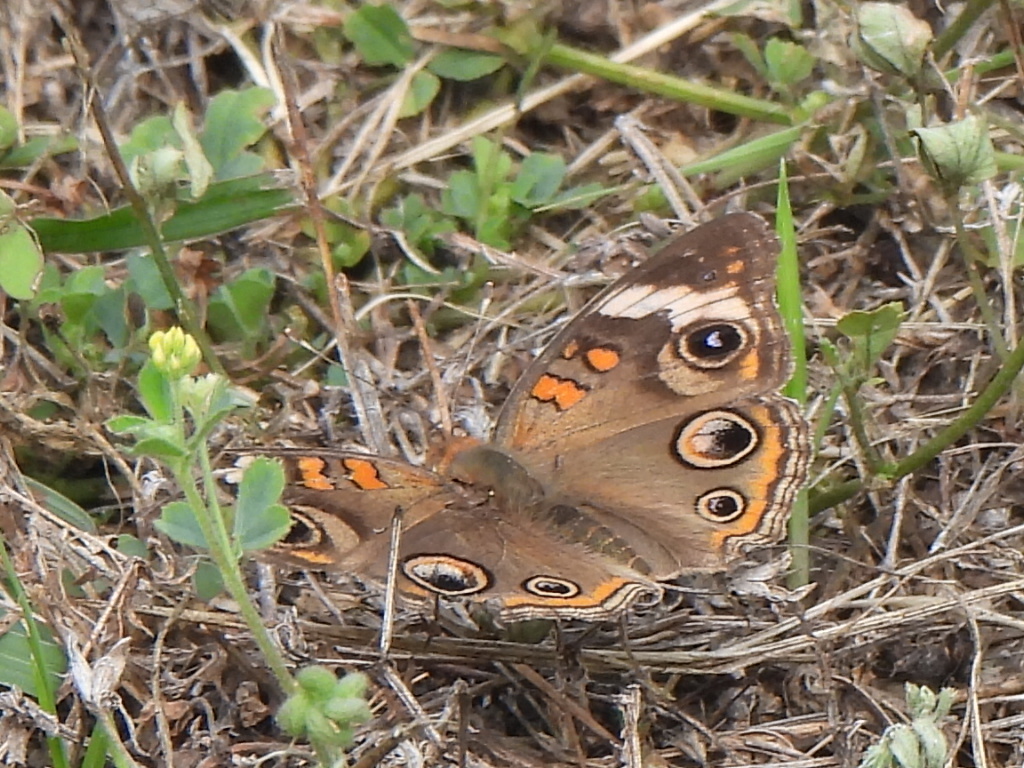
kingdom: Animalia
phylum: Arthropoda
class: Insecta
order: Lepidoptera
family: Nymphalidae
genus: Junonia
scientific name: Junonia coenia
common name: Common buckeye
